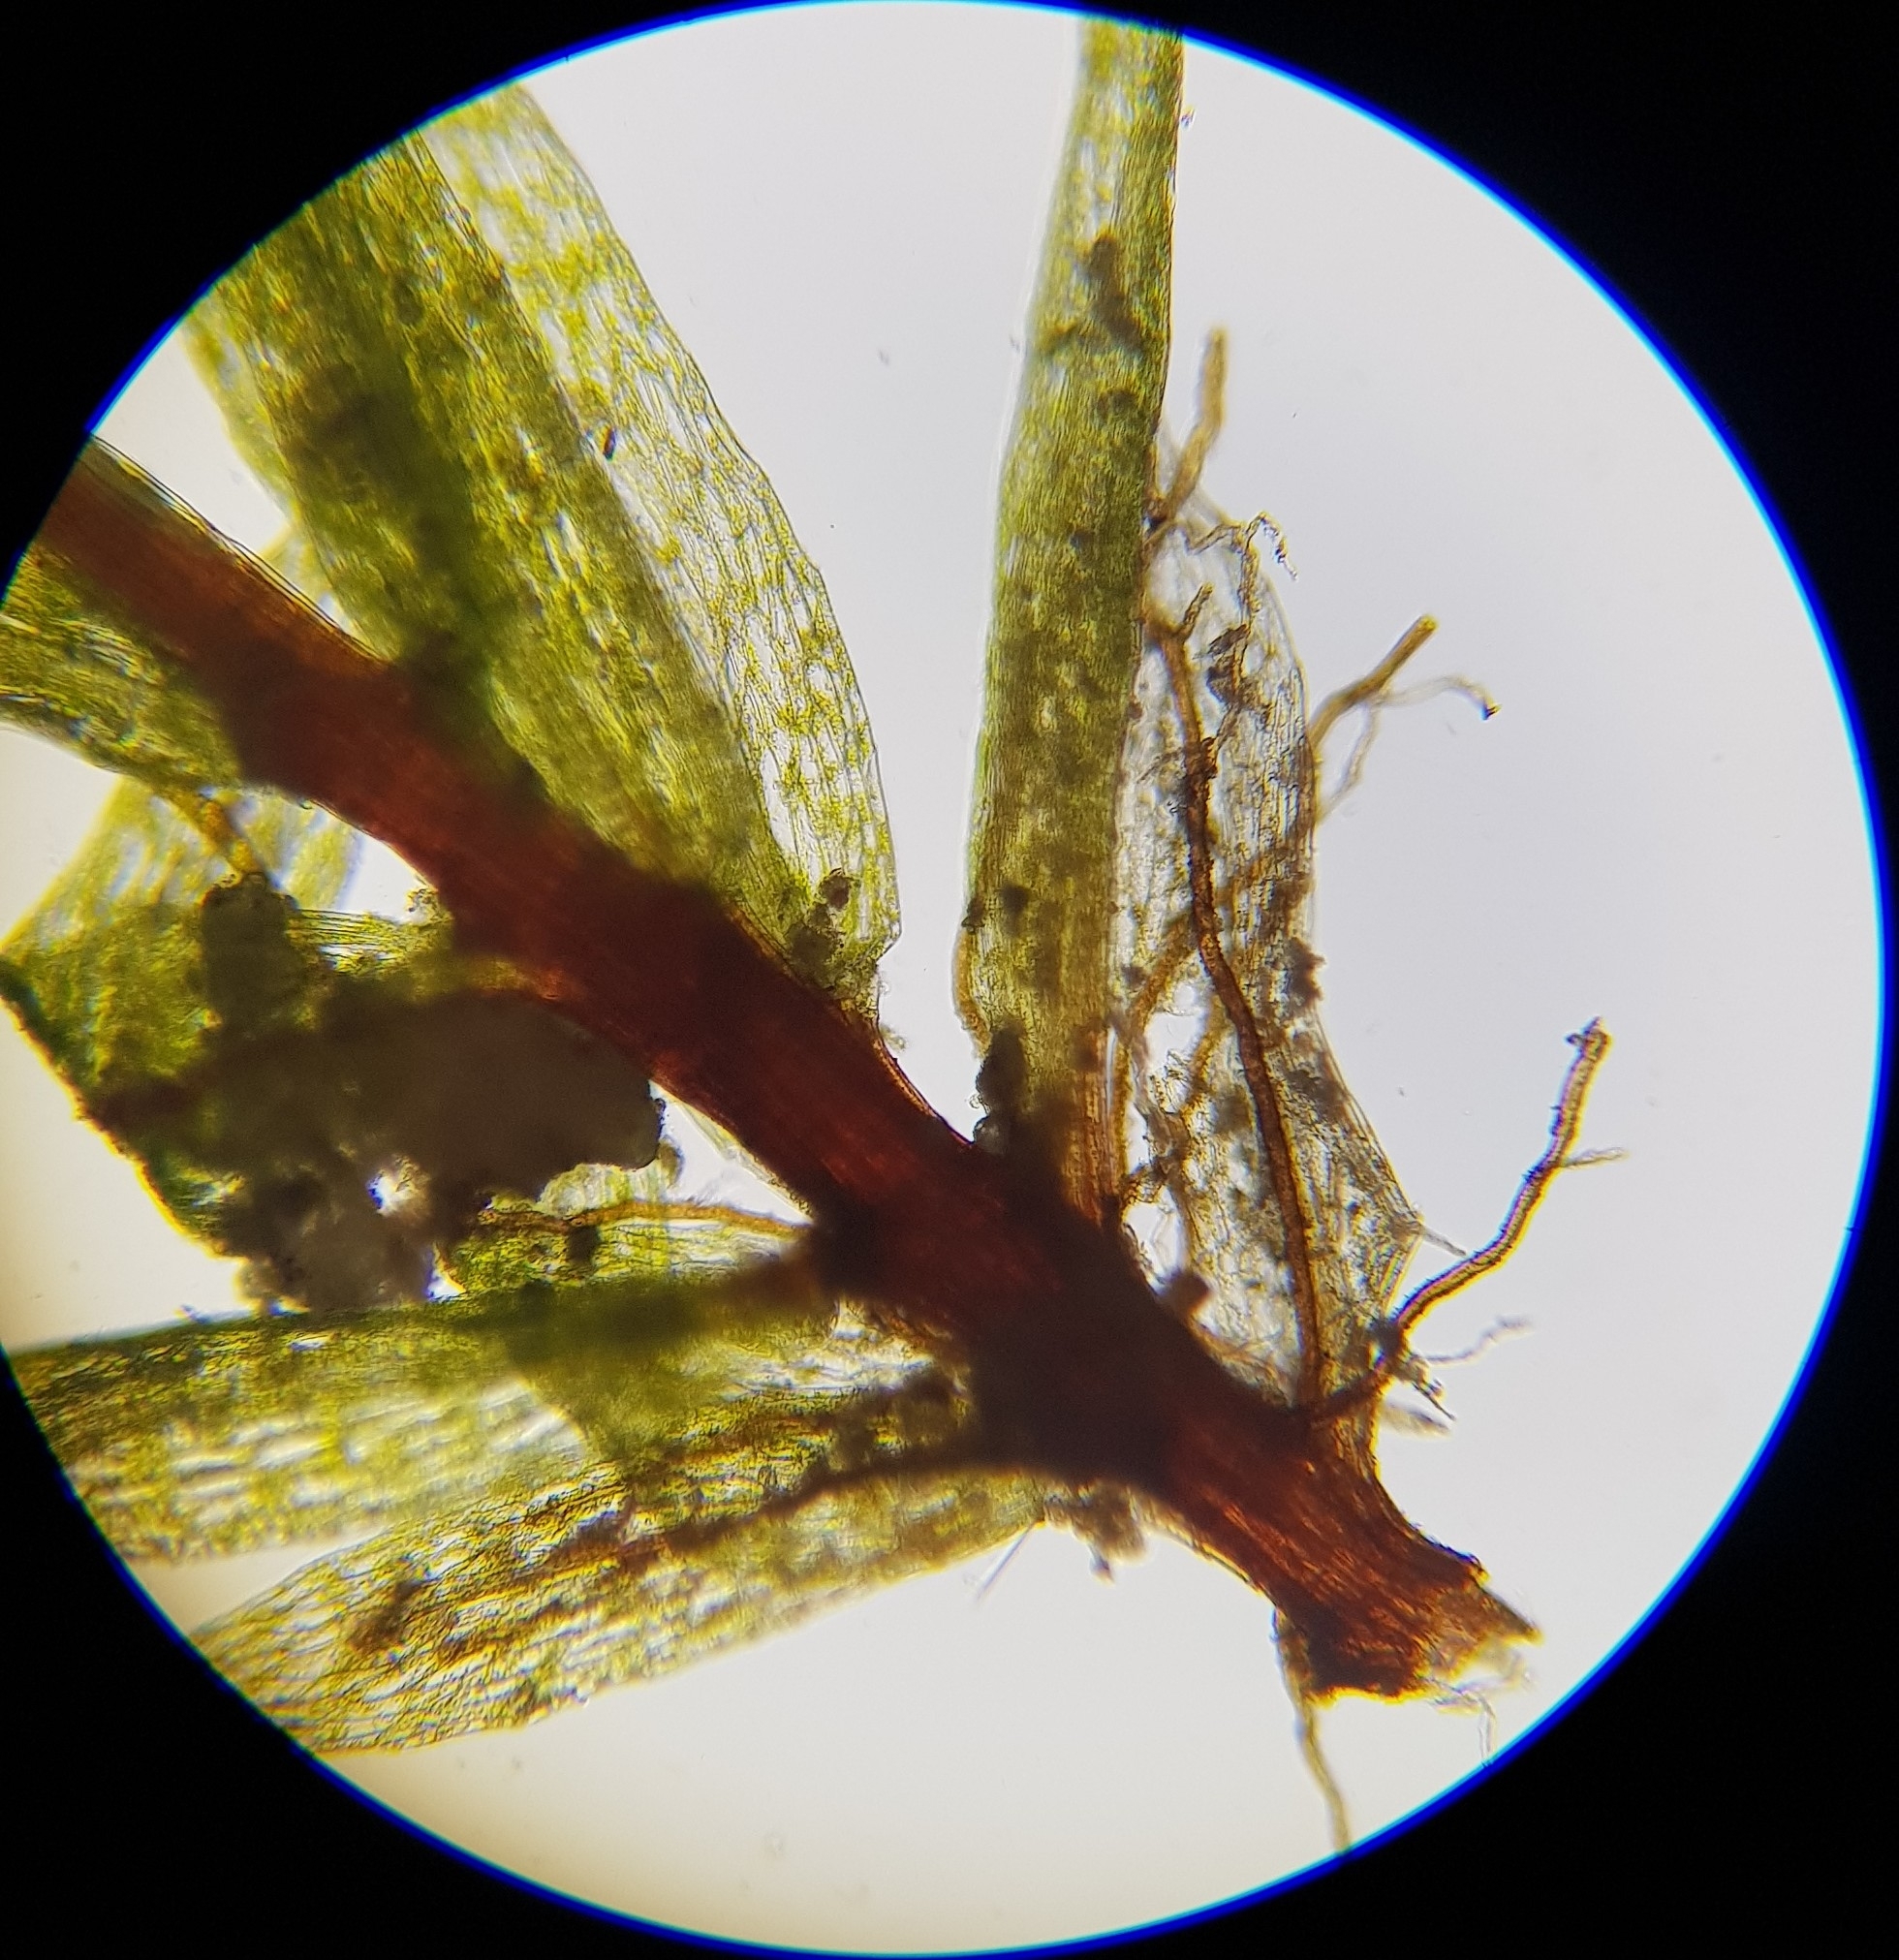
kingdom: Plantae
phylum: Bryophyta
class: Bryopsida
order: Bryales
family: Mniaceae
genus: Pohlia
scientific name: Pohlia lutescens
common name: Yellow thread-moss
